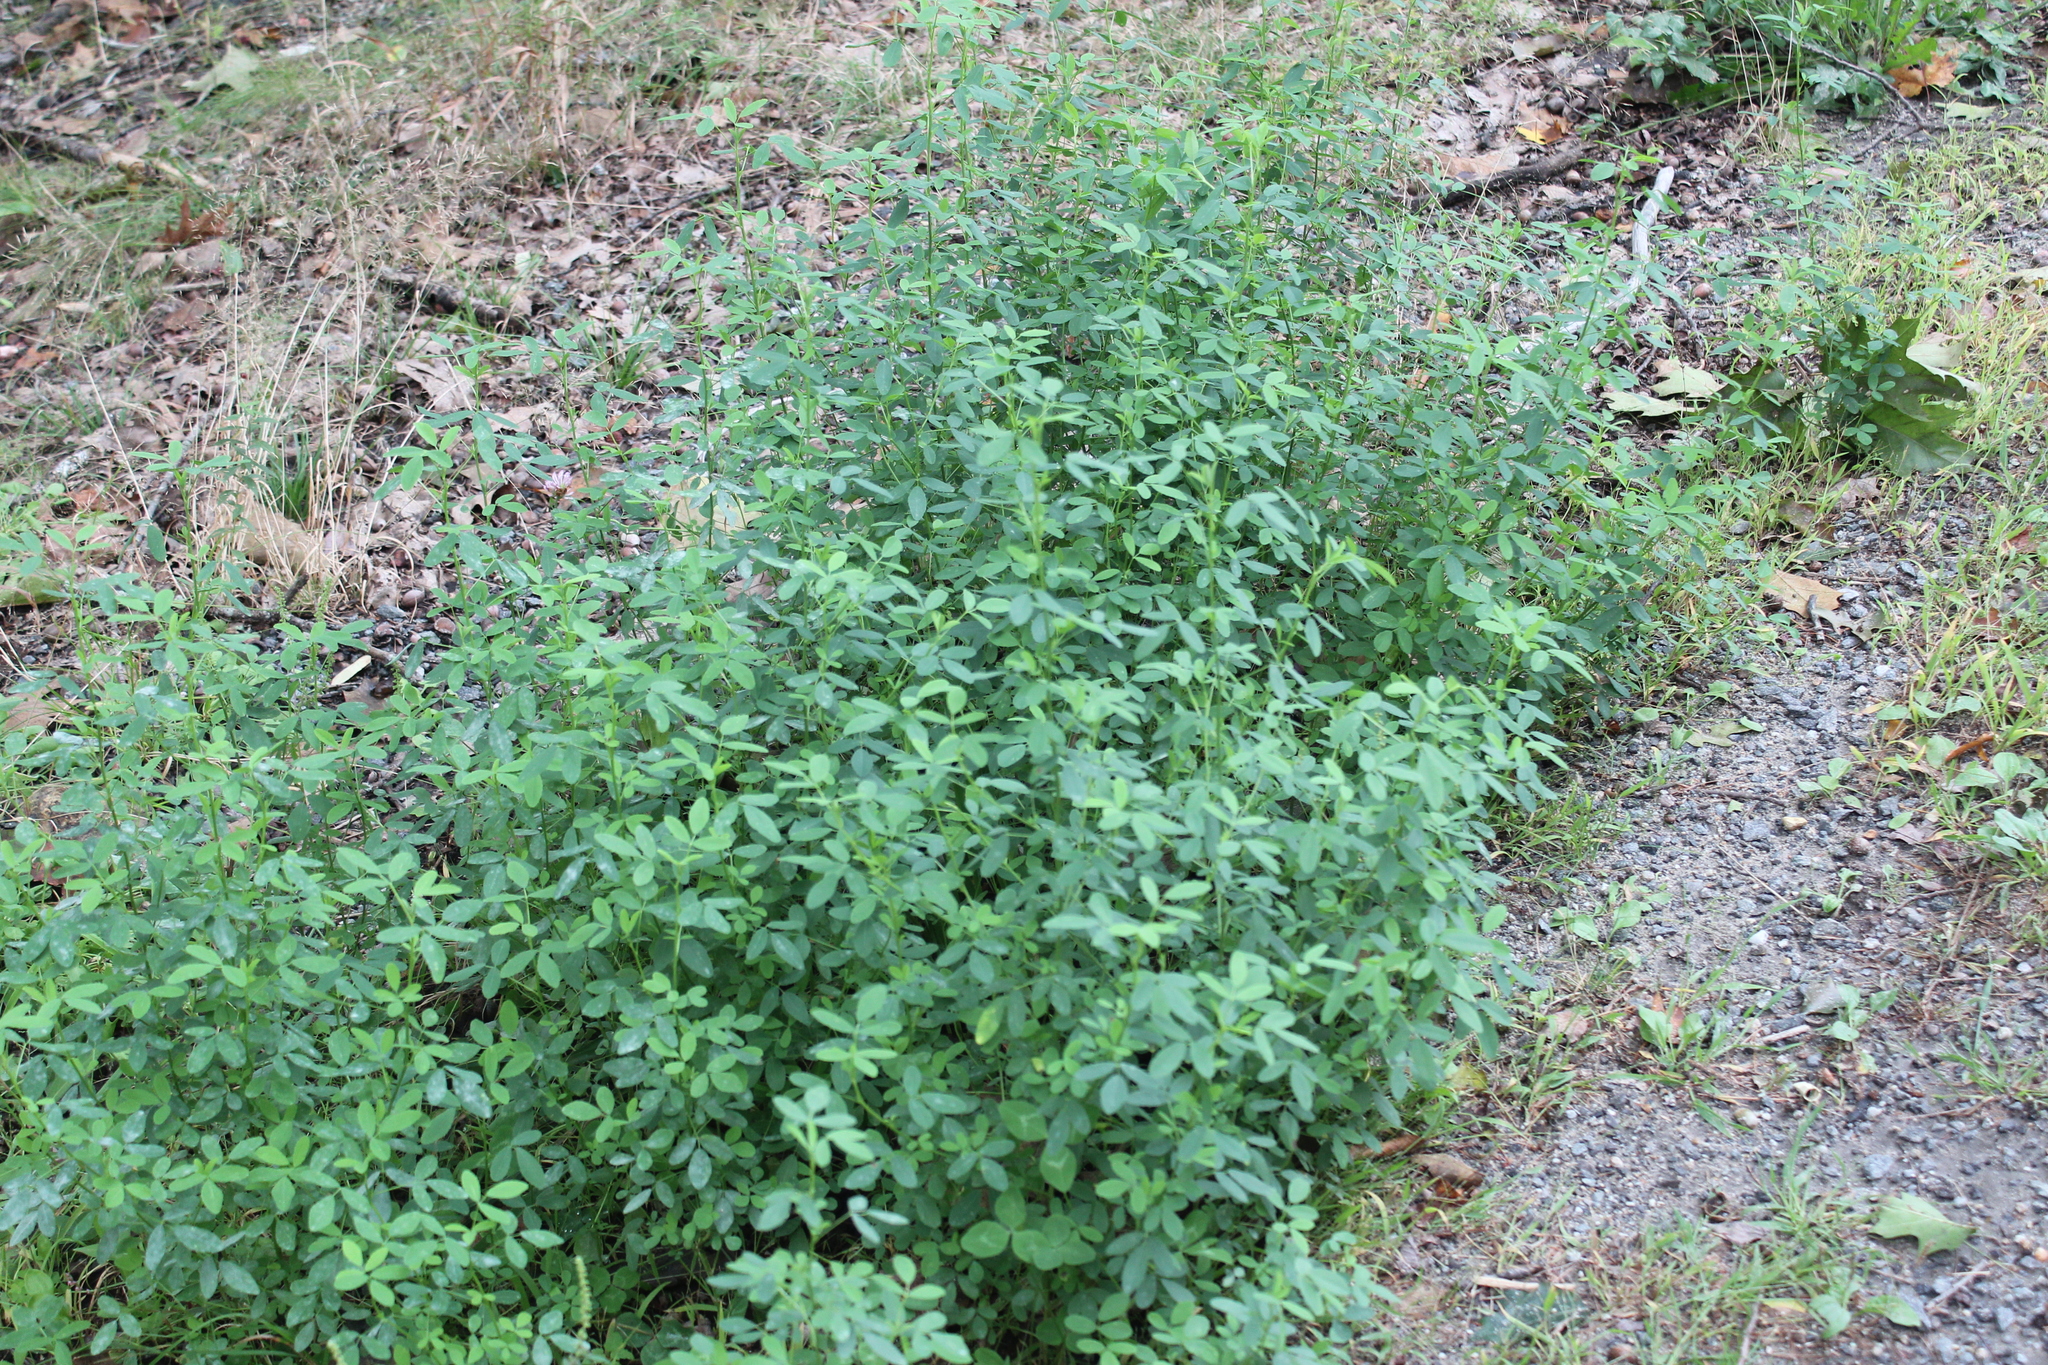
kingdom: Plantae
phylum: Tracheophyta
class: Magnoliopsida
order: Fabales
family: Fabaceae
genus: Melilotus
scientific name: Melilotus
